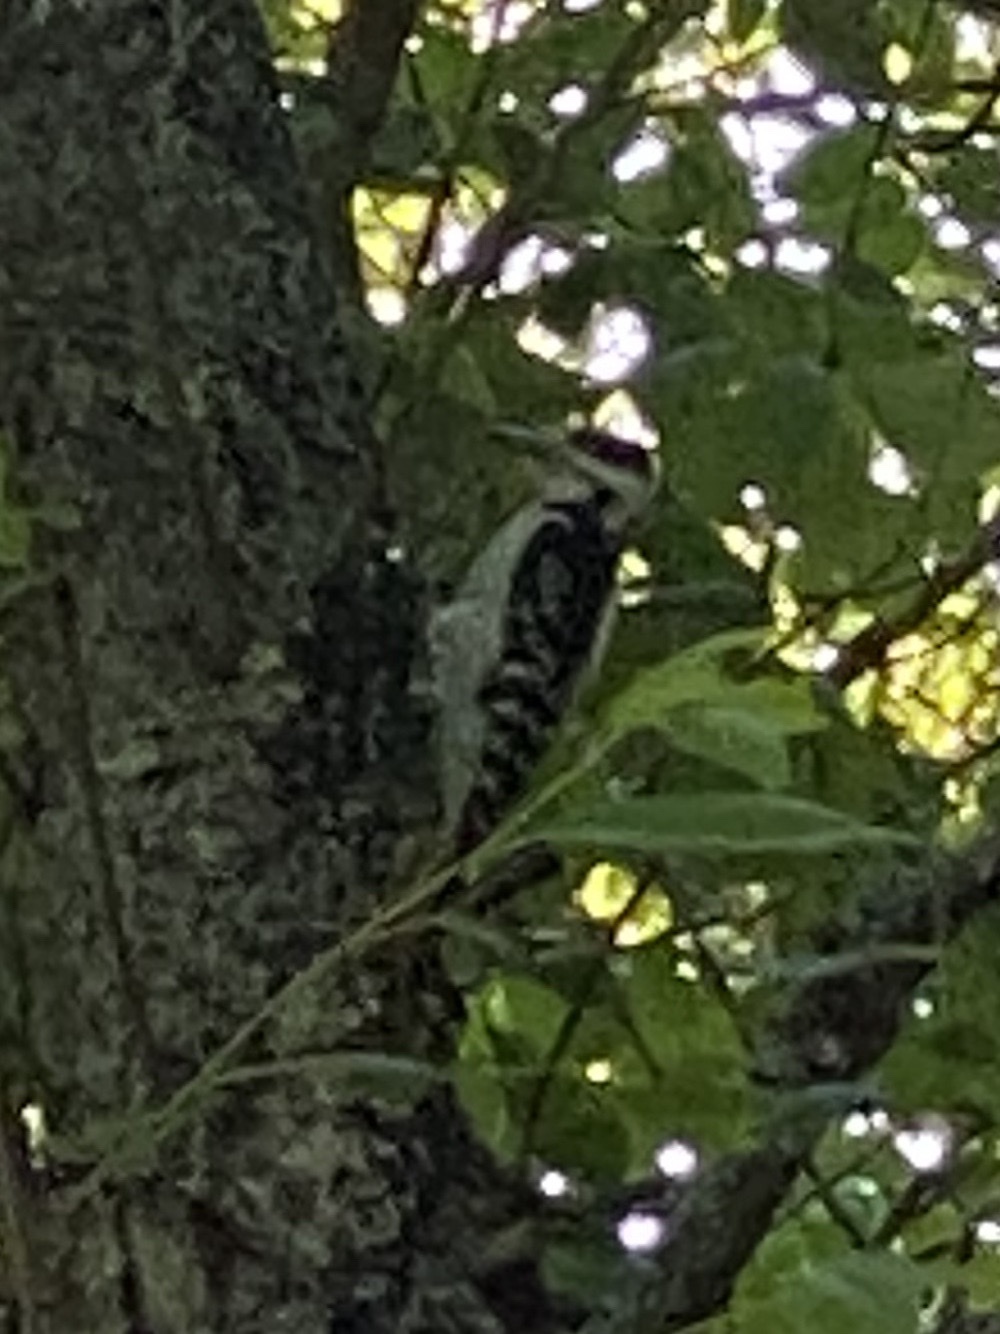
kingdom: Animalia
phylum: Chordata
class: Aves
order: Piciformes
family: Picidae
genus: Leuconotopicus
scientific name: Leuconotopicus villosus
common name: Hairy woodpecker
